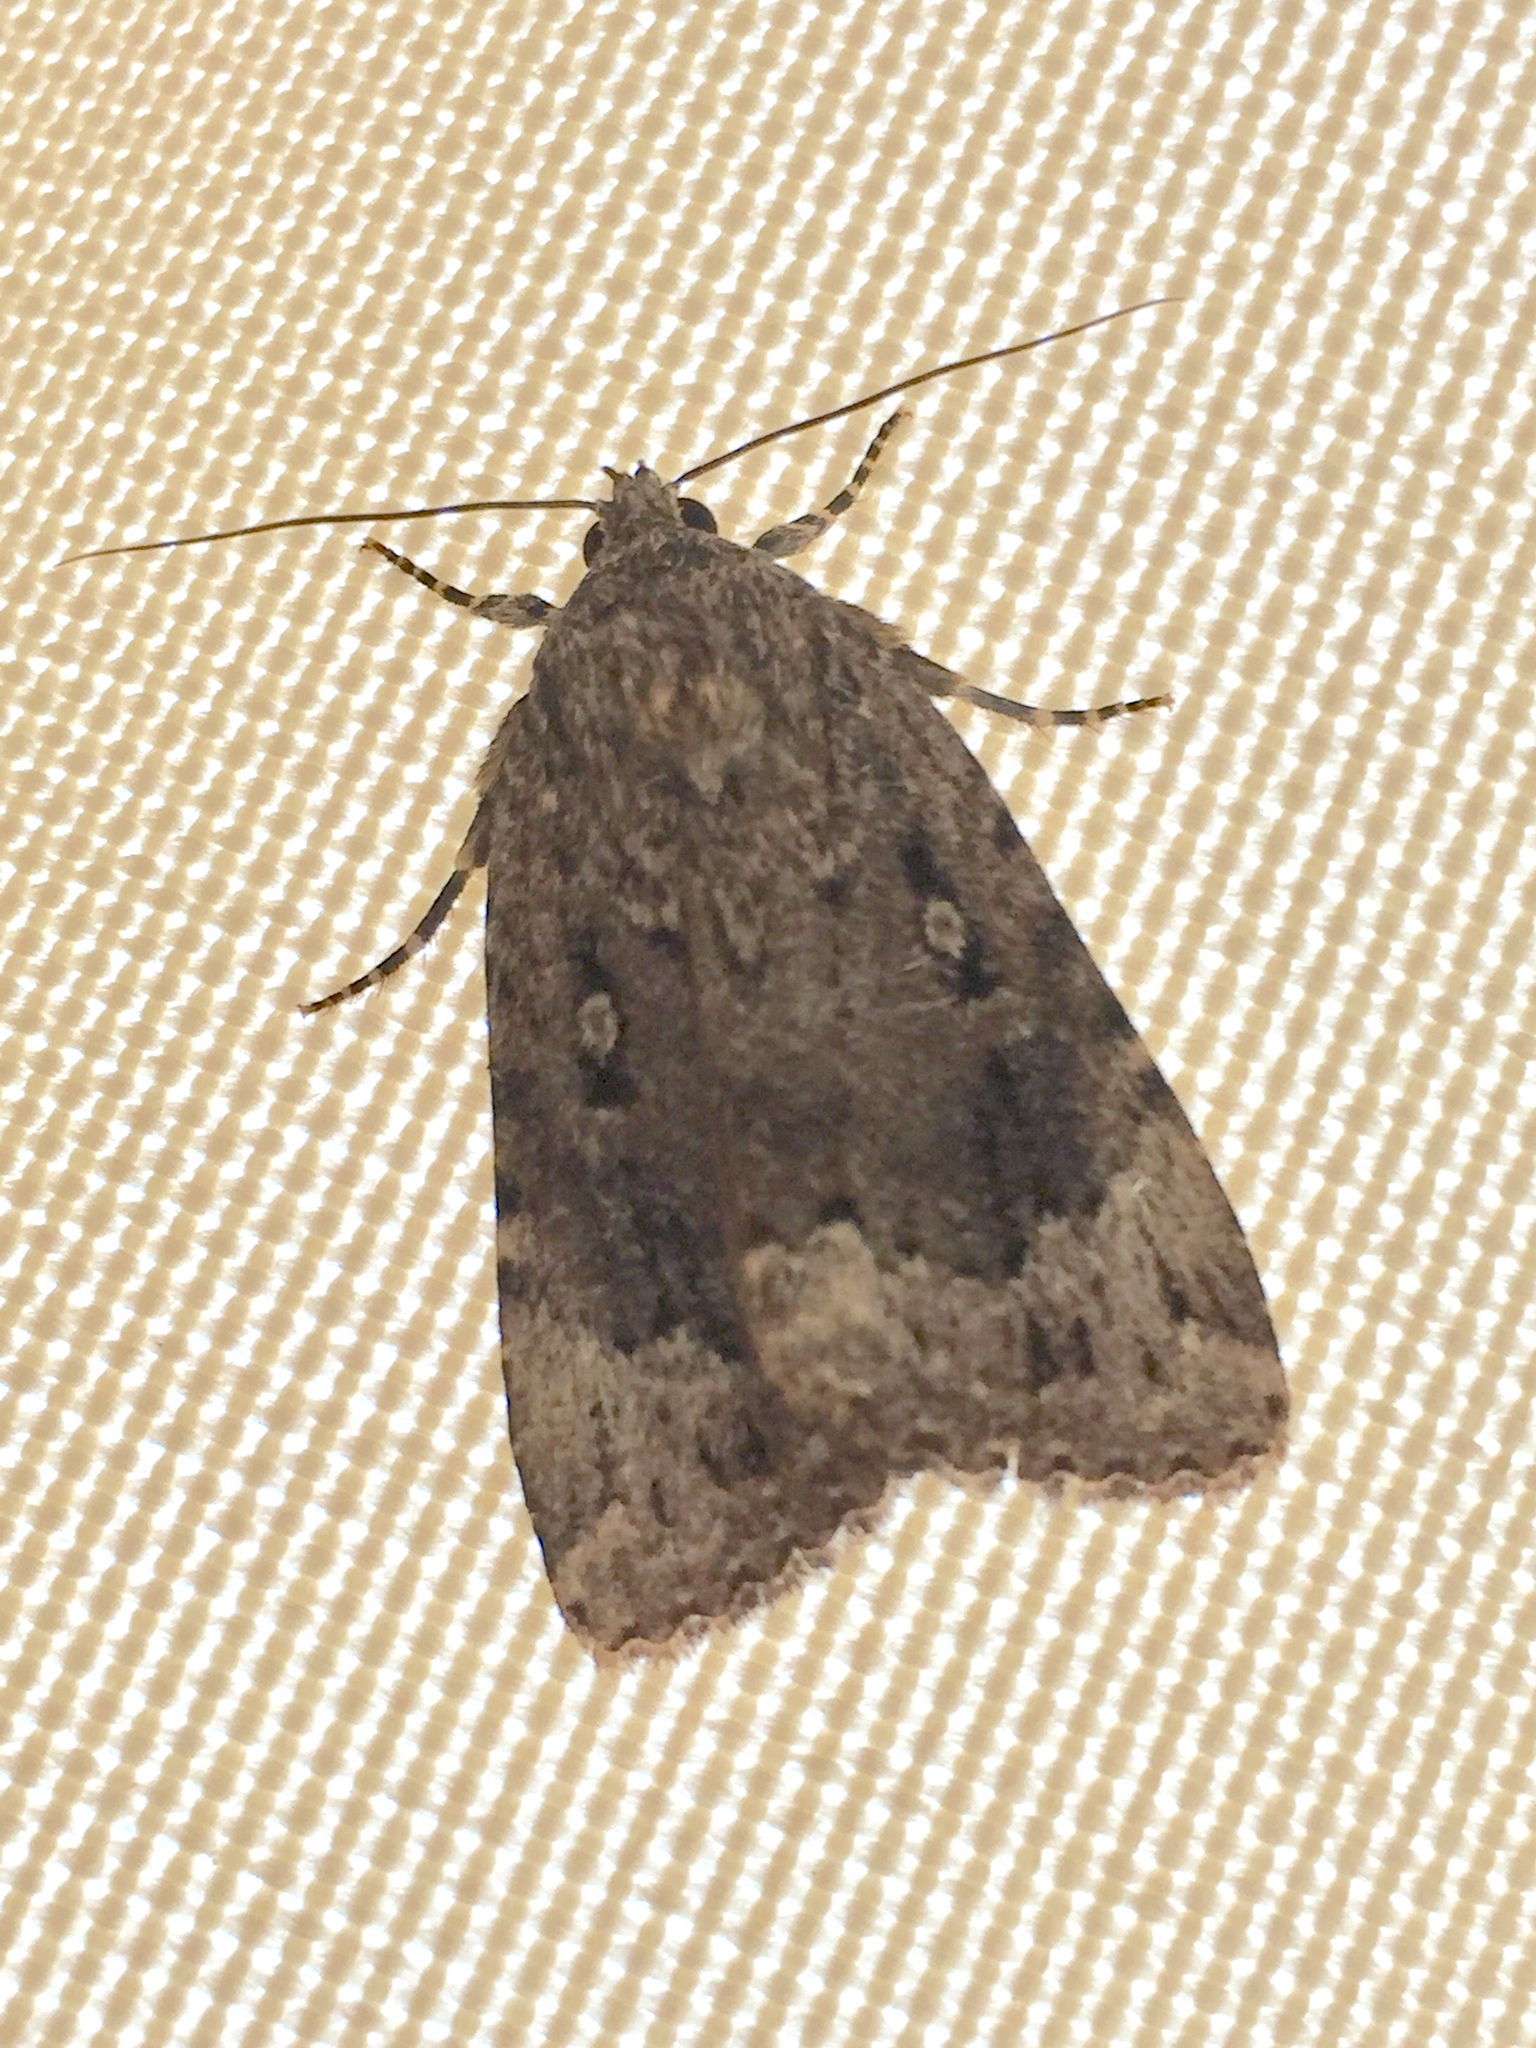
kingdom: Animalia
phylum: Arthropoda
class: Insecta
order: Lepidoptera
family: Noctuidae
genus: Amphipyra
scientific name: Amphipyra pyramidoides
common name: American copper underwing
